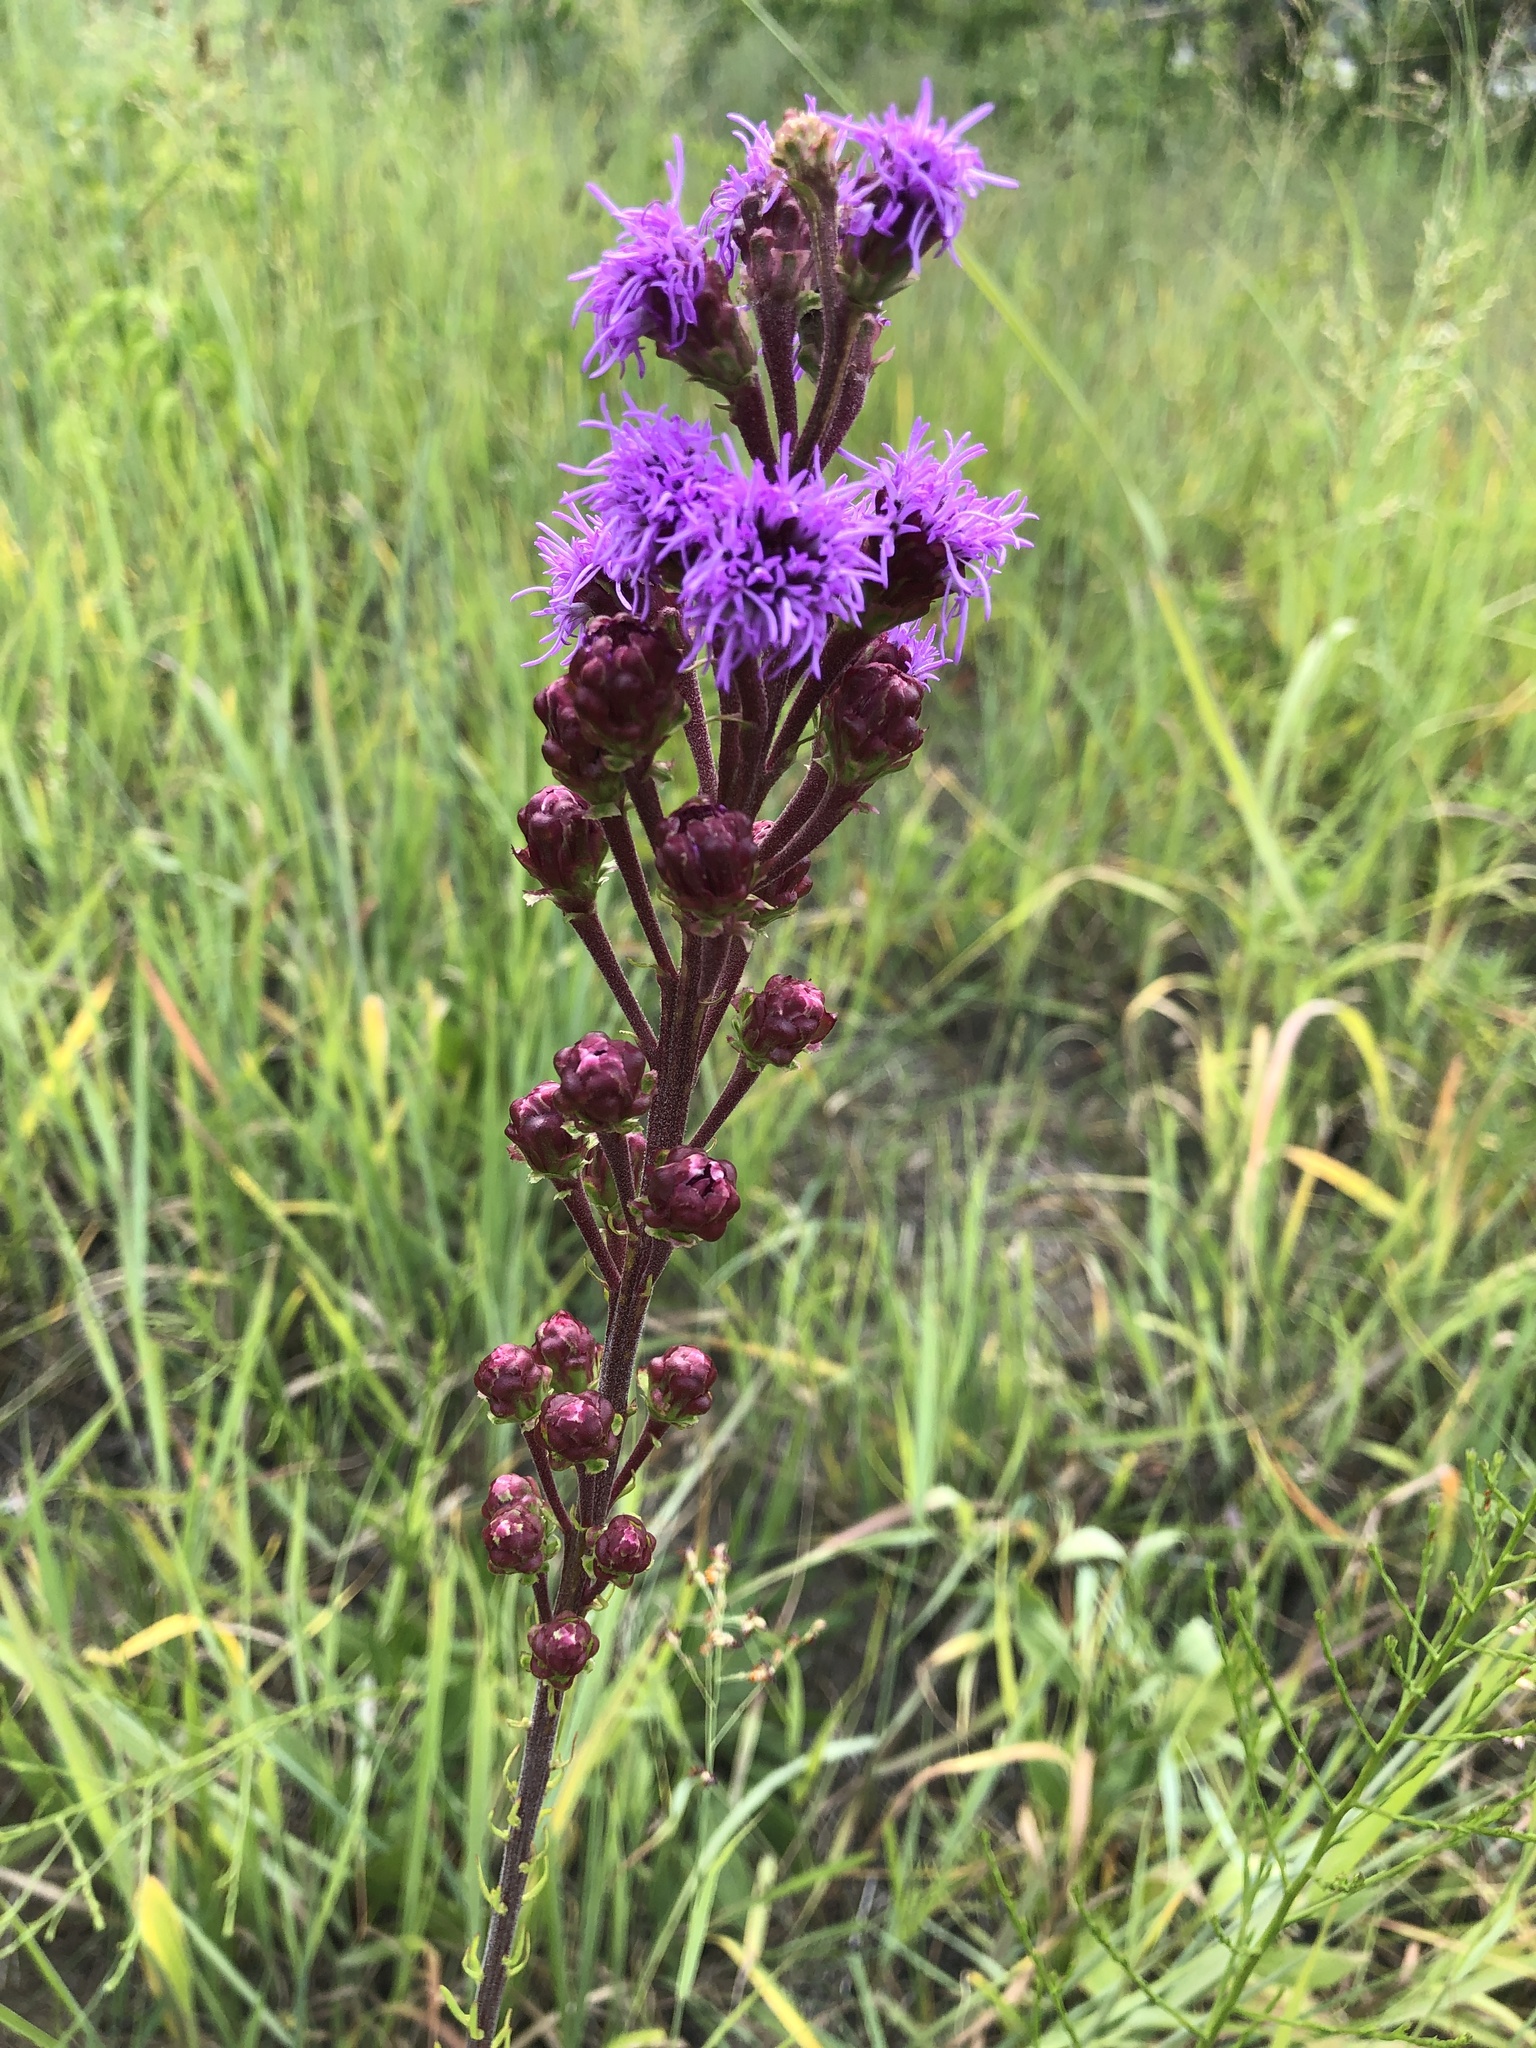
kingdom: Plantae
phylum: Tracheophyta
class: Magnoliopsida
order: Asterales
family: Asteraceae
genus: Liatris
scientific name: Liatris ligulistylis
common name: Northern plains gayfeather
